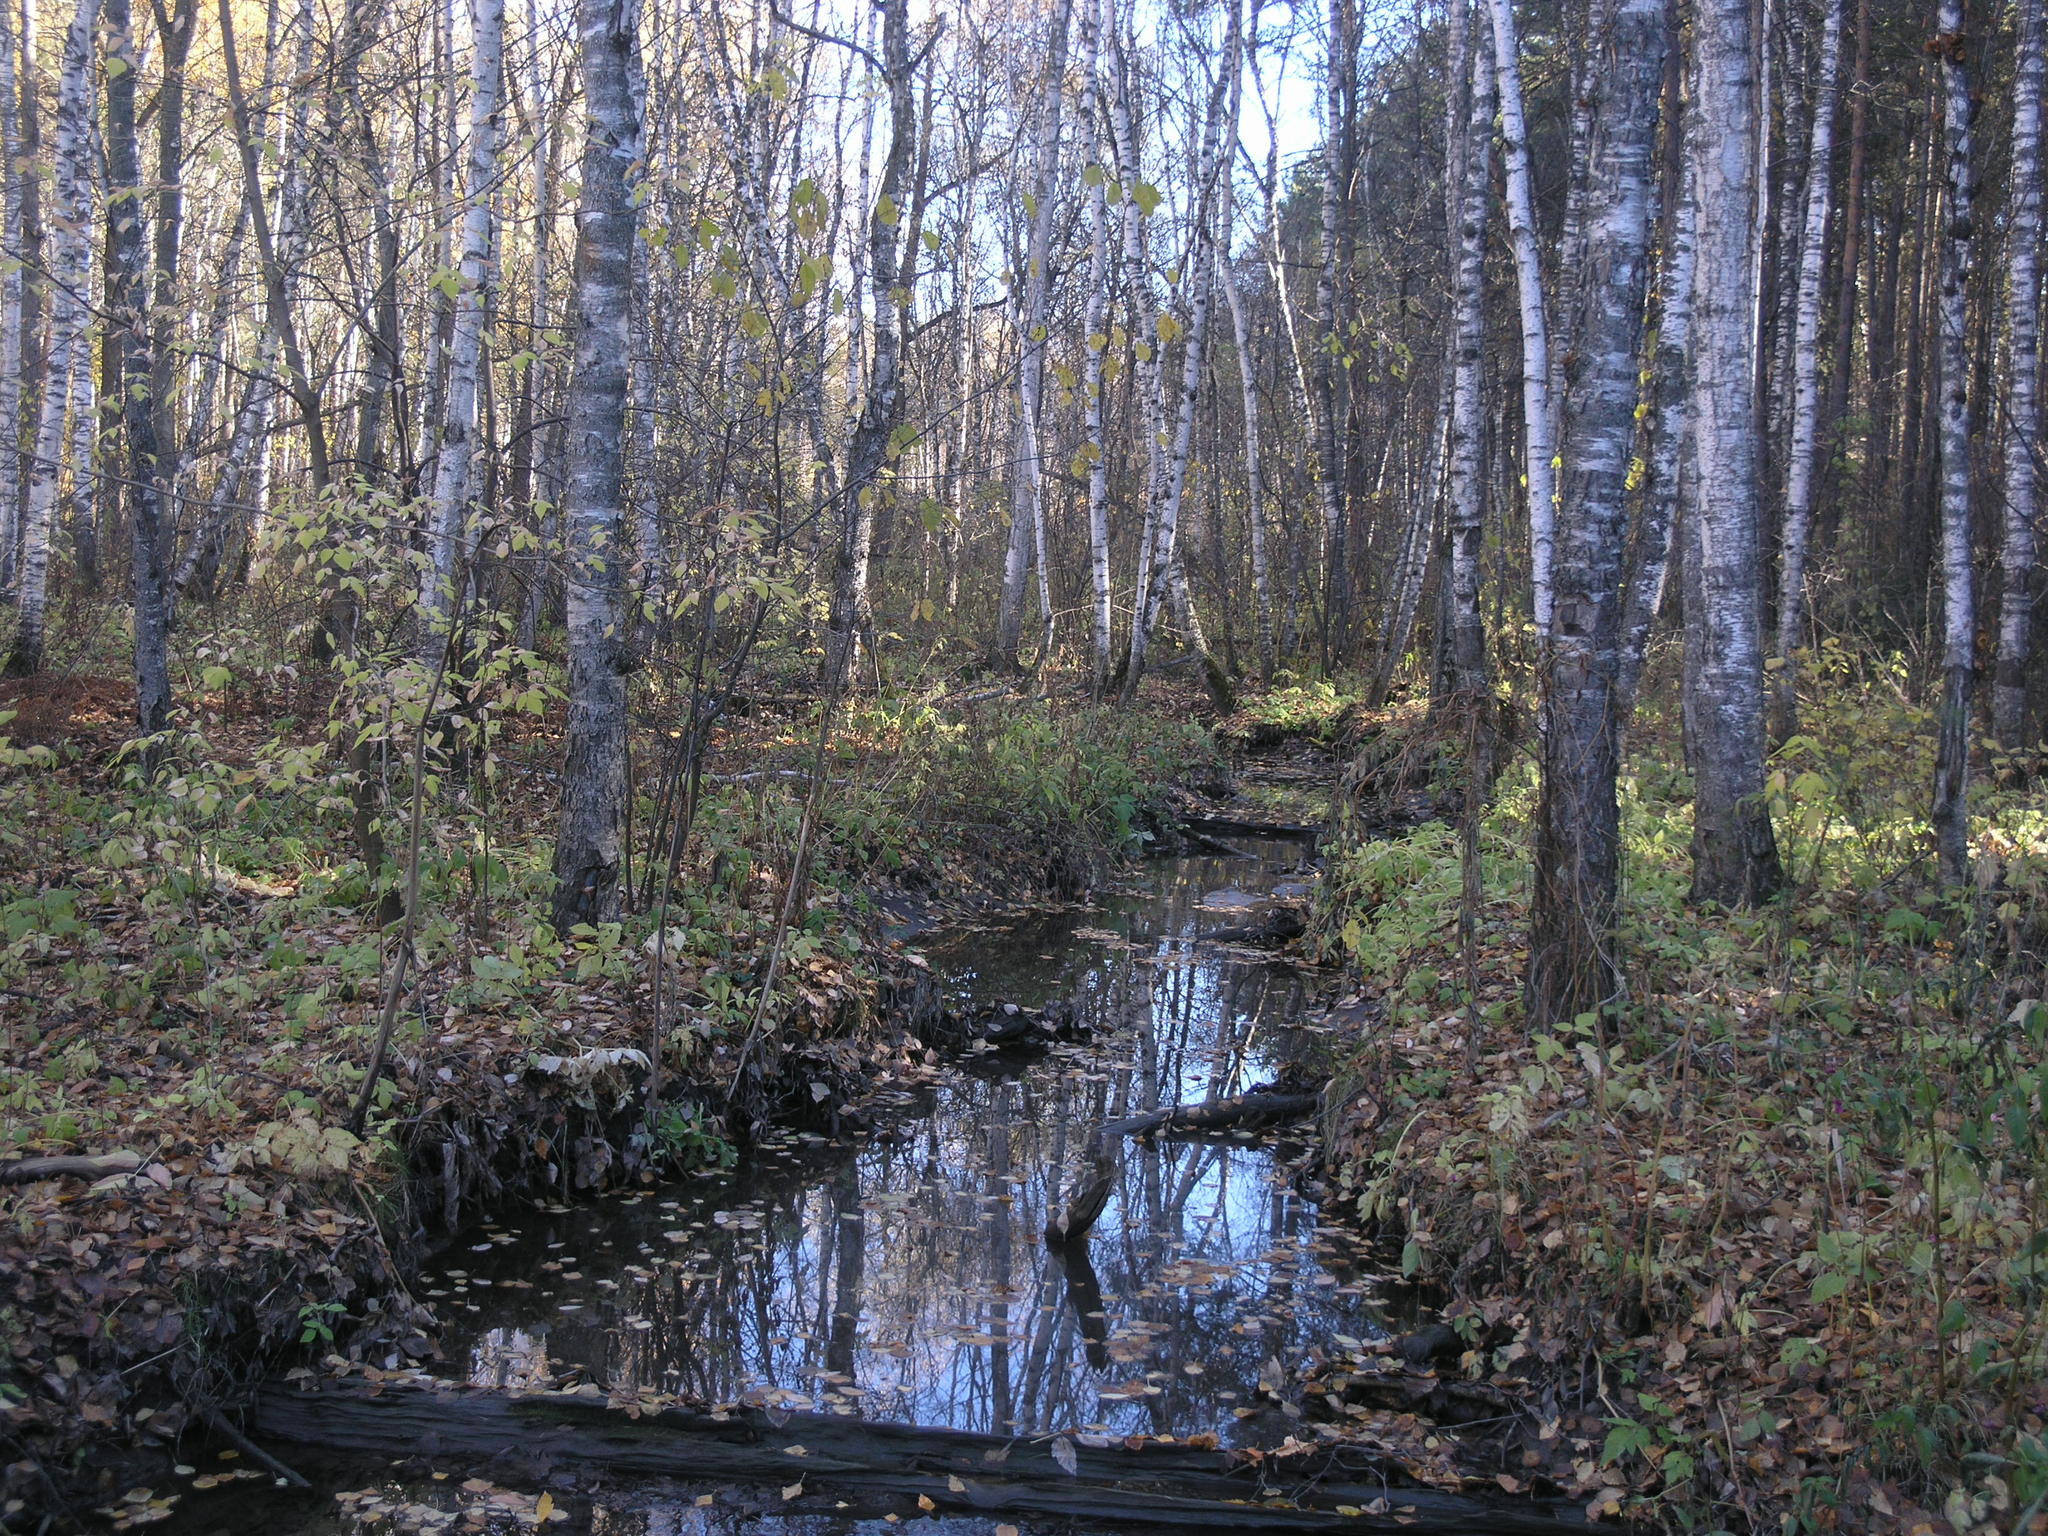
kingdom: Plantae
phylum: Tracheophyta
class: Magnoliopsida
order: Fagales
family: Betulaceae
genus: Betula
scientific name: Betula pubescens
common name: Downy birch
